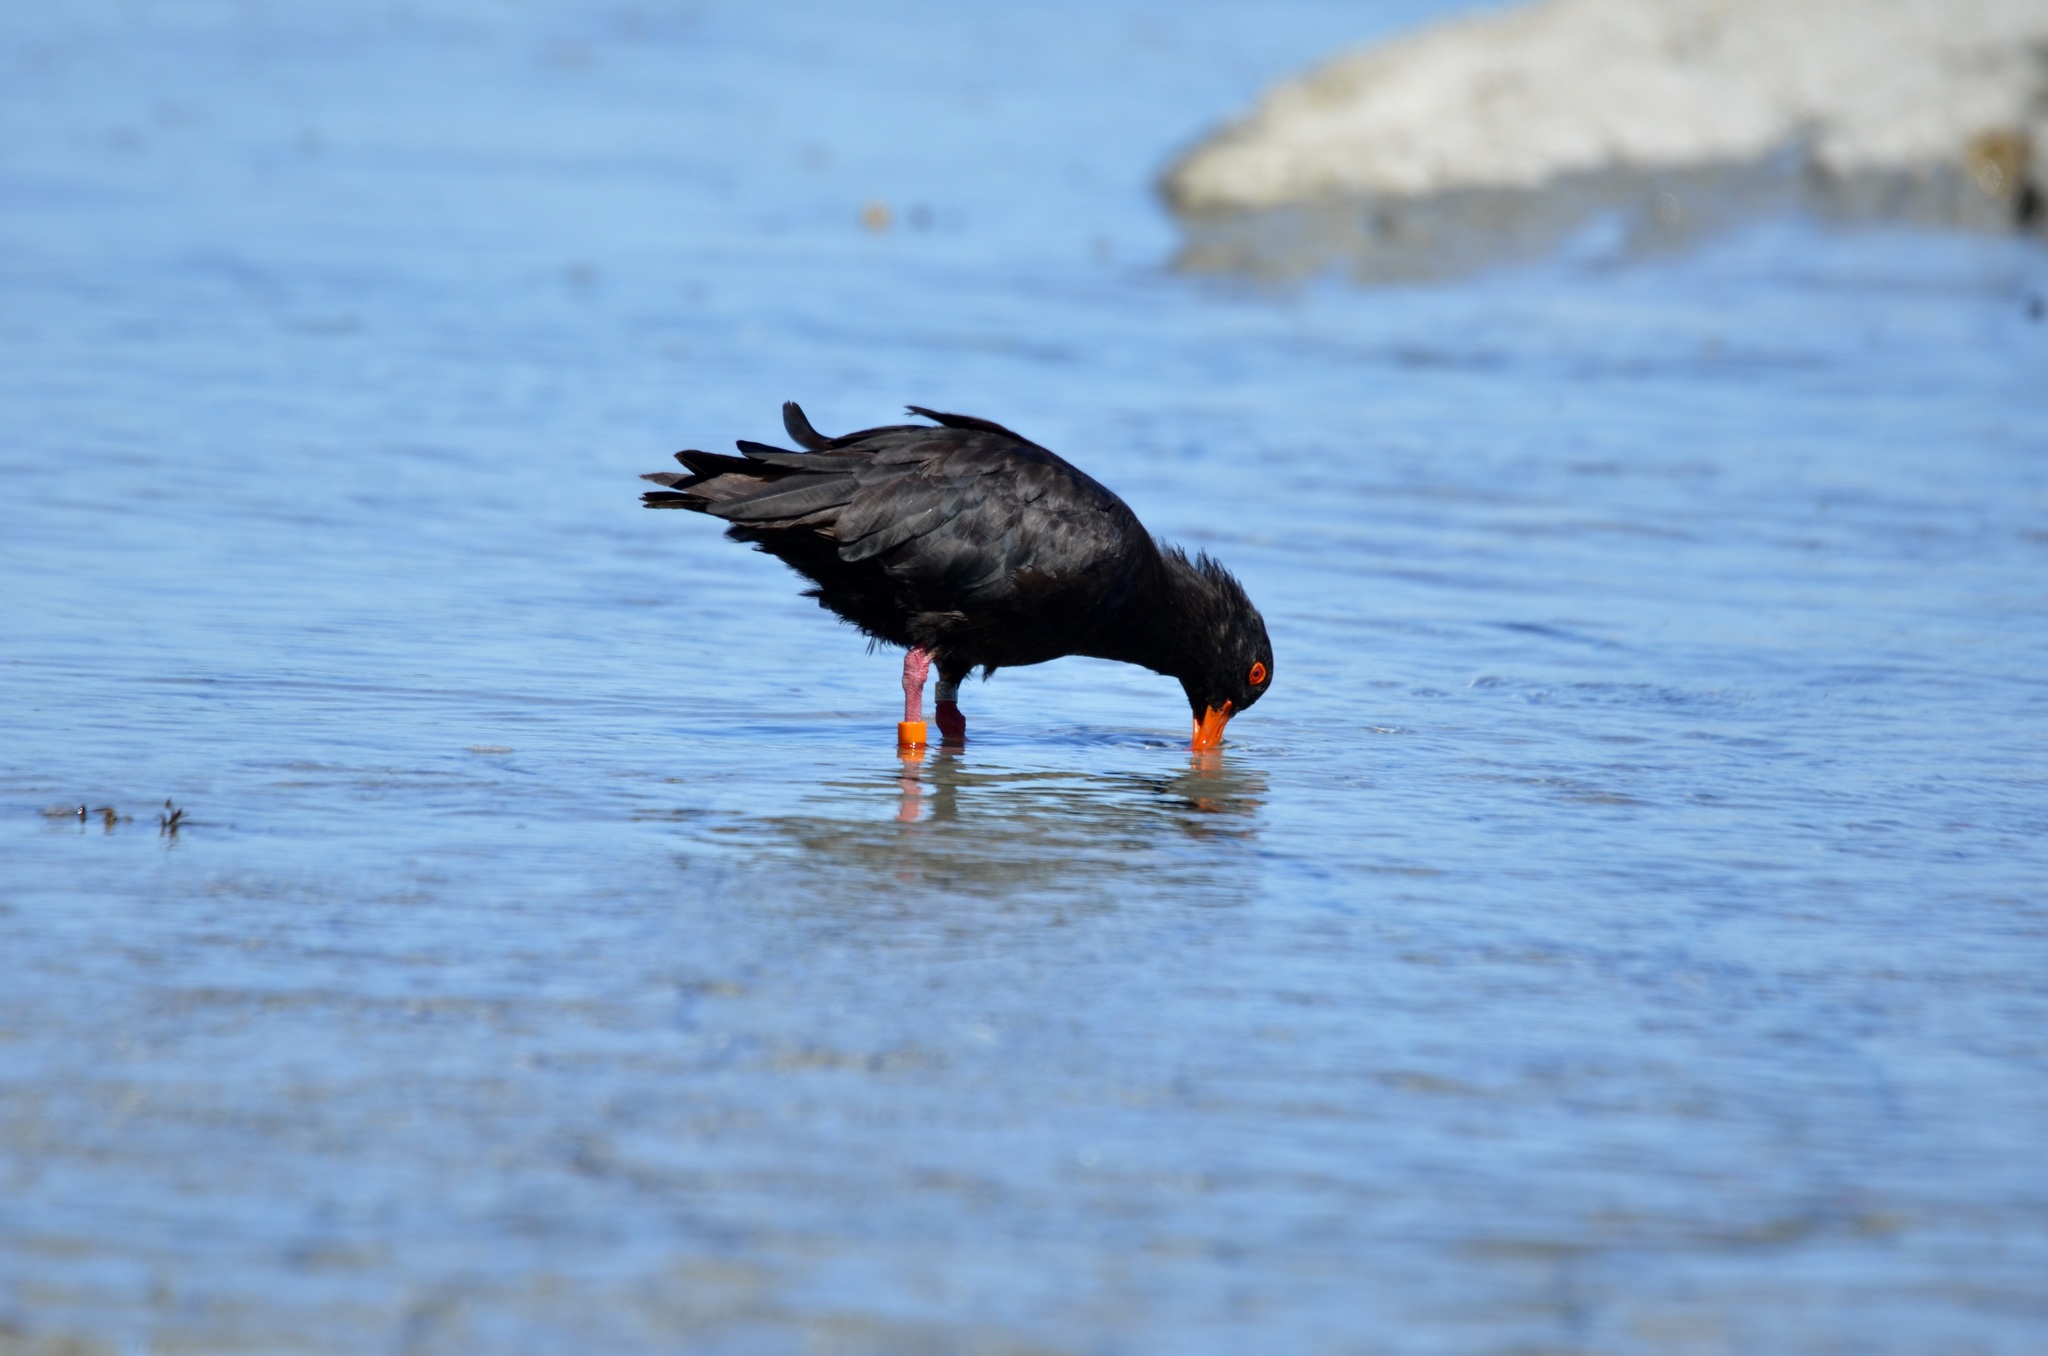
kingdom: Animalia
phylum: Chordata
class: Aves
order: Charadriiformes
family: Haematopodidae
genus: Haematopus
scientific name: Haematopus unicolor
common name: Variable oystercatcher
